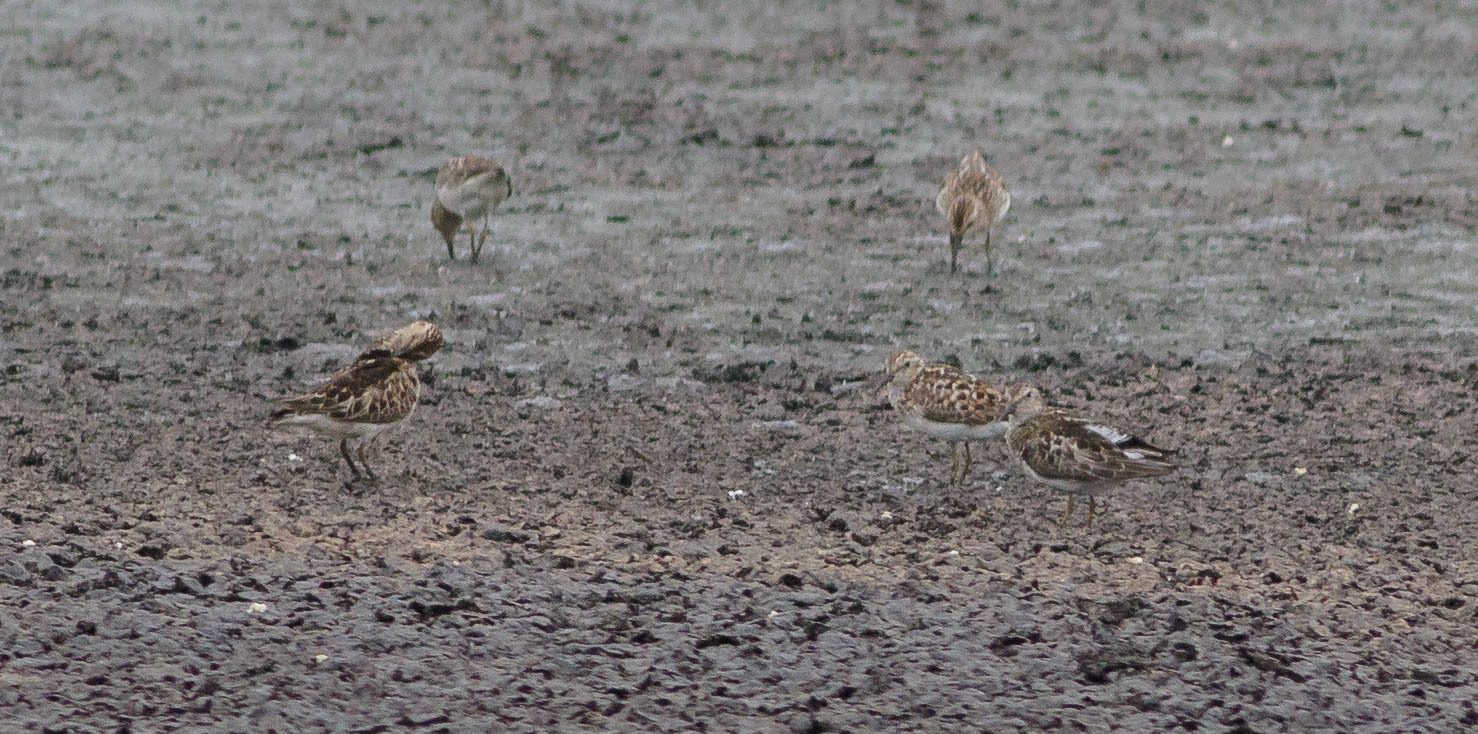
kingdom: Animalia
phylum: Chordata
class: Aves
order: Charadriiformes
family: Scolopacidae
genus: Calidris
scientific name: Calidris minutilla
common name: Least sandpiper
